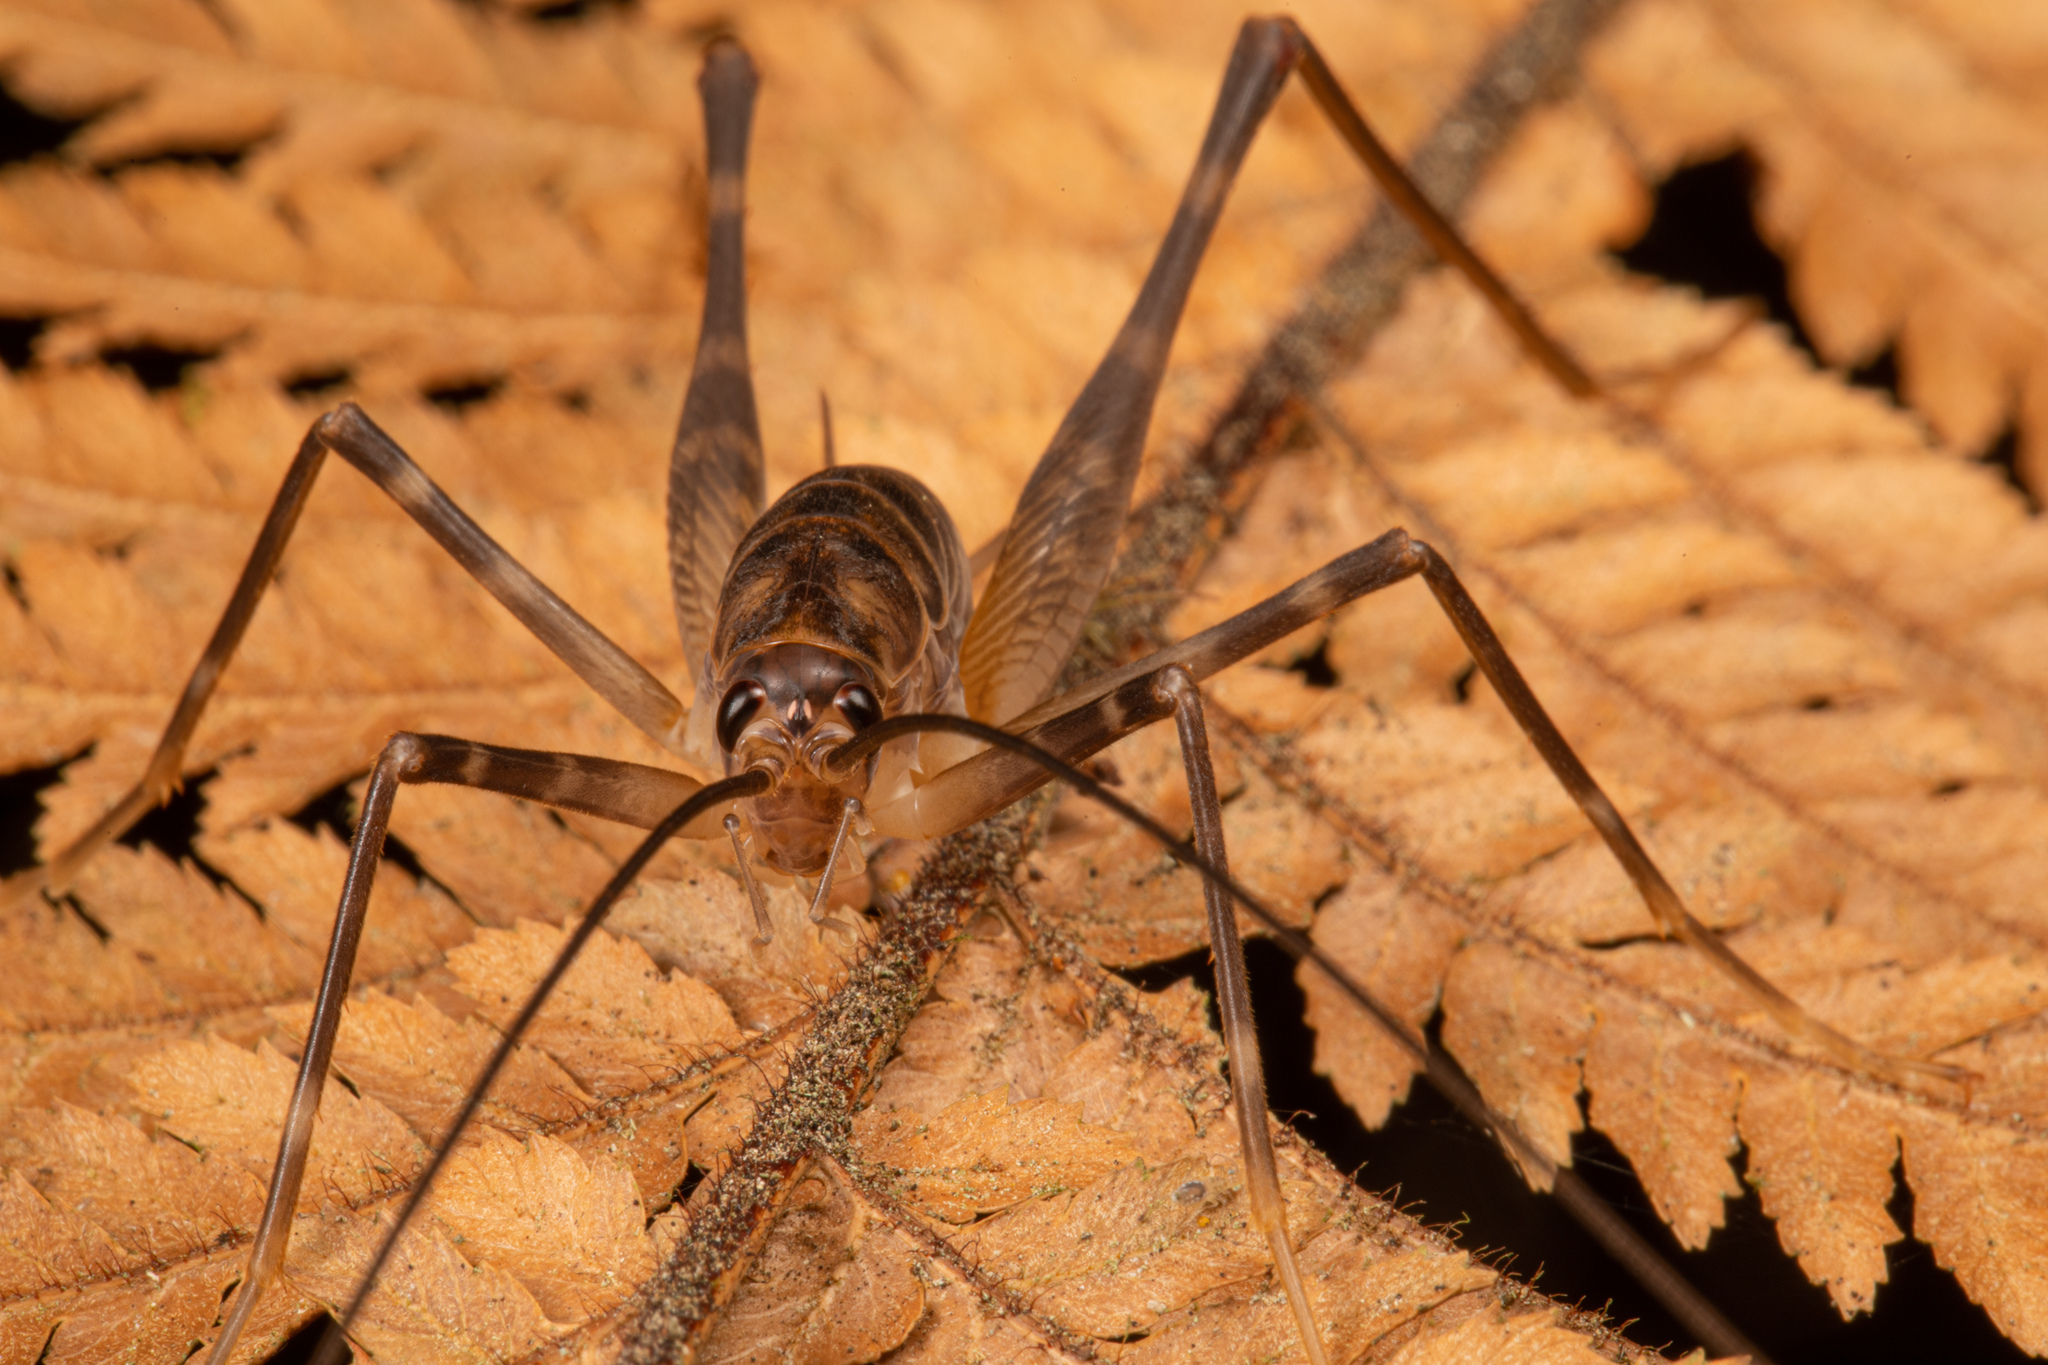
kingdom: Animalia
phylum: Arthropoda
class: Insecta
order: Orthoptera
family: Rhaphidophoridae
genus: Pachyrhamma
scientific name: Pachyrhamma acanthocera
